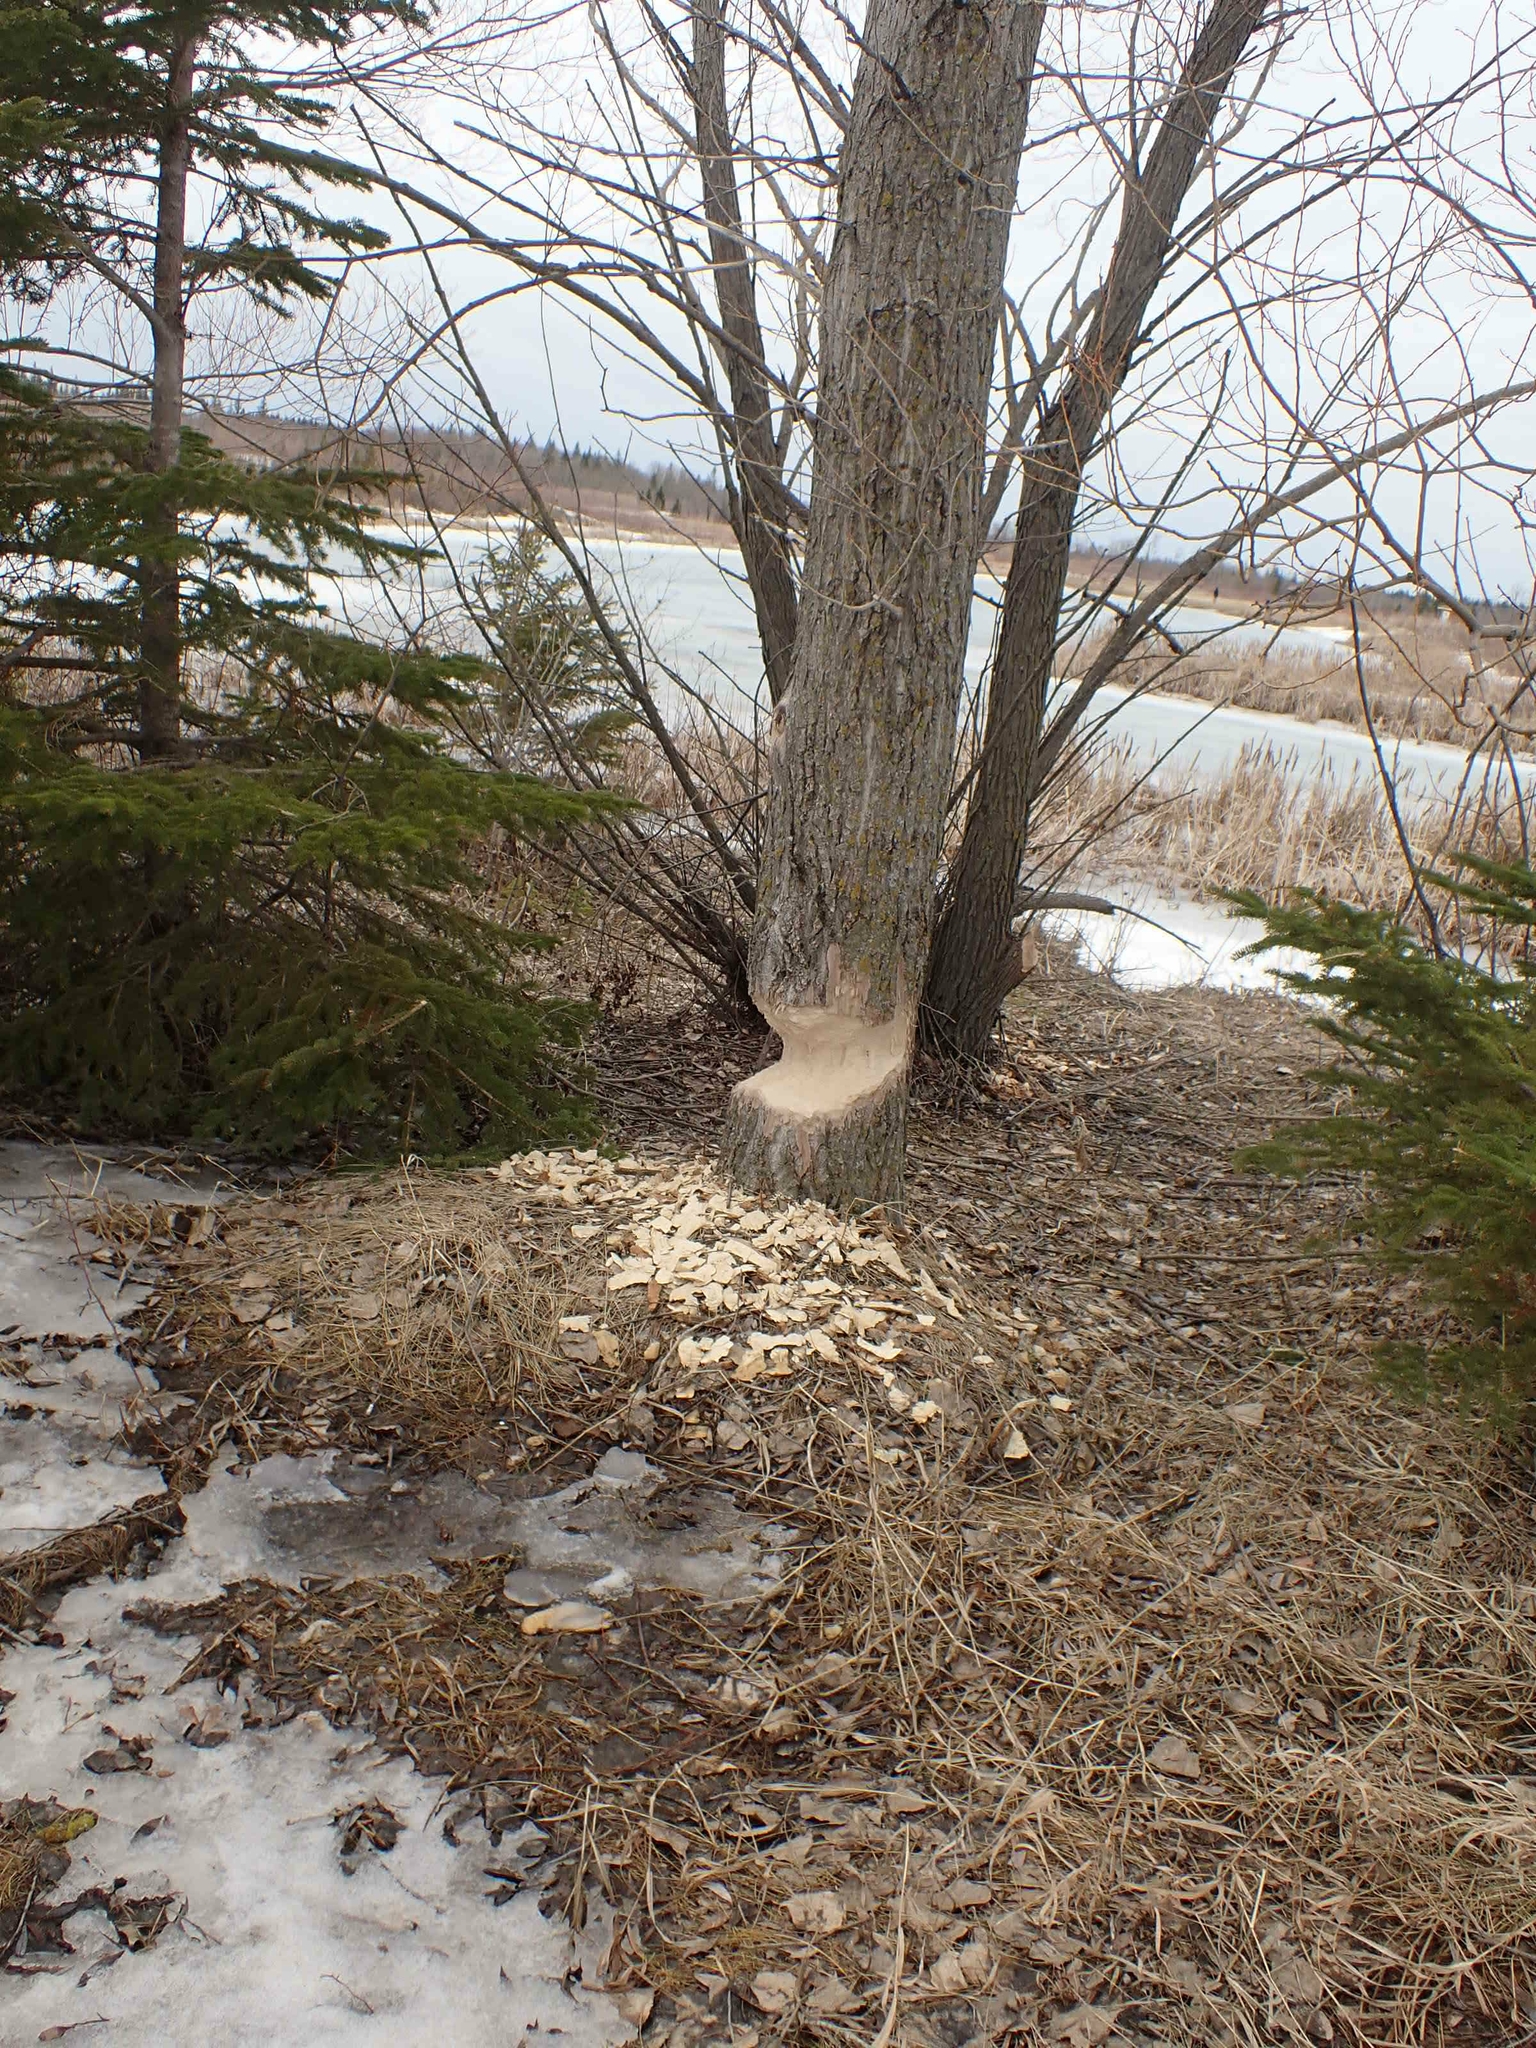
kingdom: Animalia
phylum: Chordata
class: Mammalia
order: Rodentia
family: Castoridae
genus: Castor
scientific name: Castor canadensis
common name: American beaver
